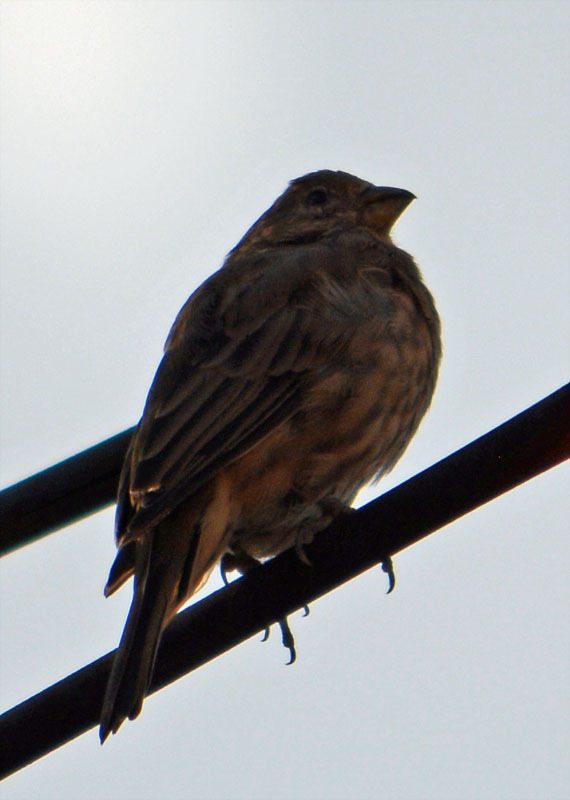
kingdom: Animalia
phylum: Chordata
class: Aves
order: Passeriformes
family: Fringillidae
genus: Haemorhous
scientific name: Haemorhous mexicanus
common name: House finch
